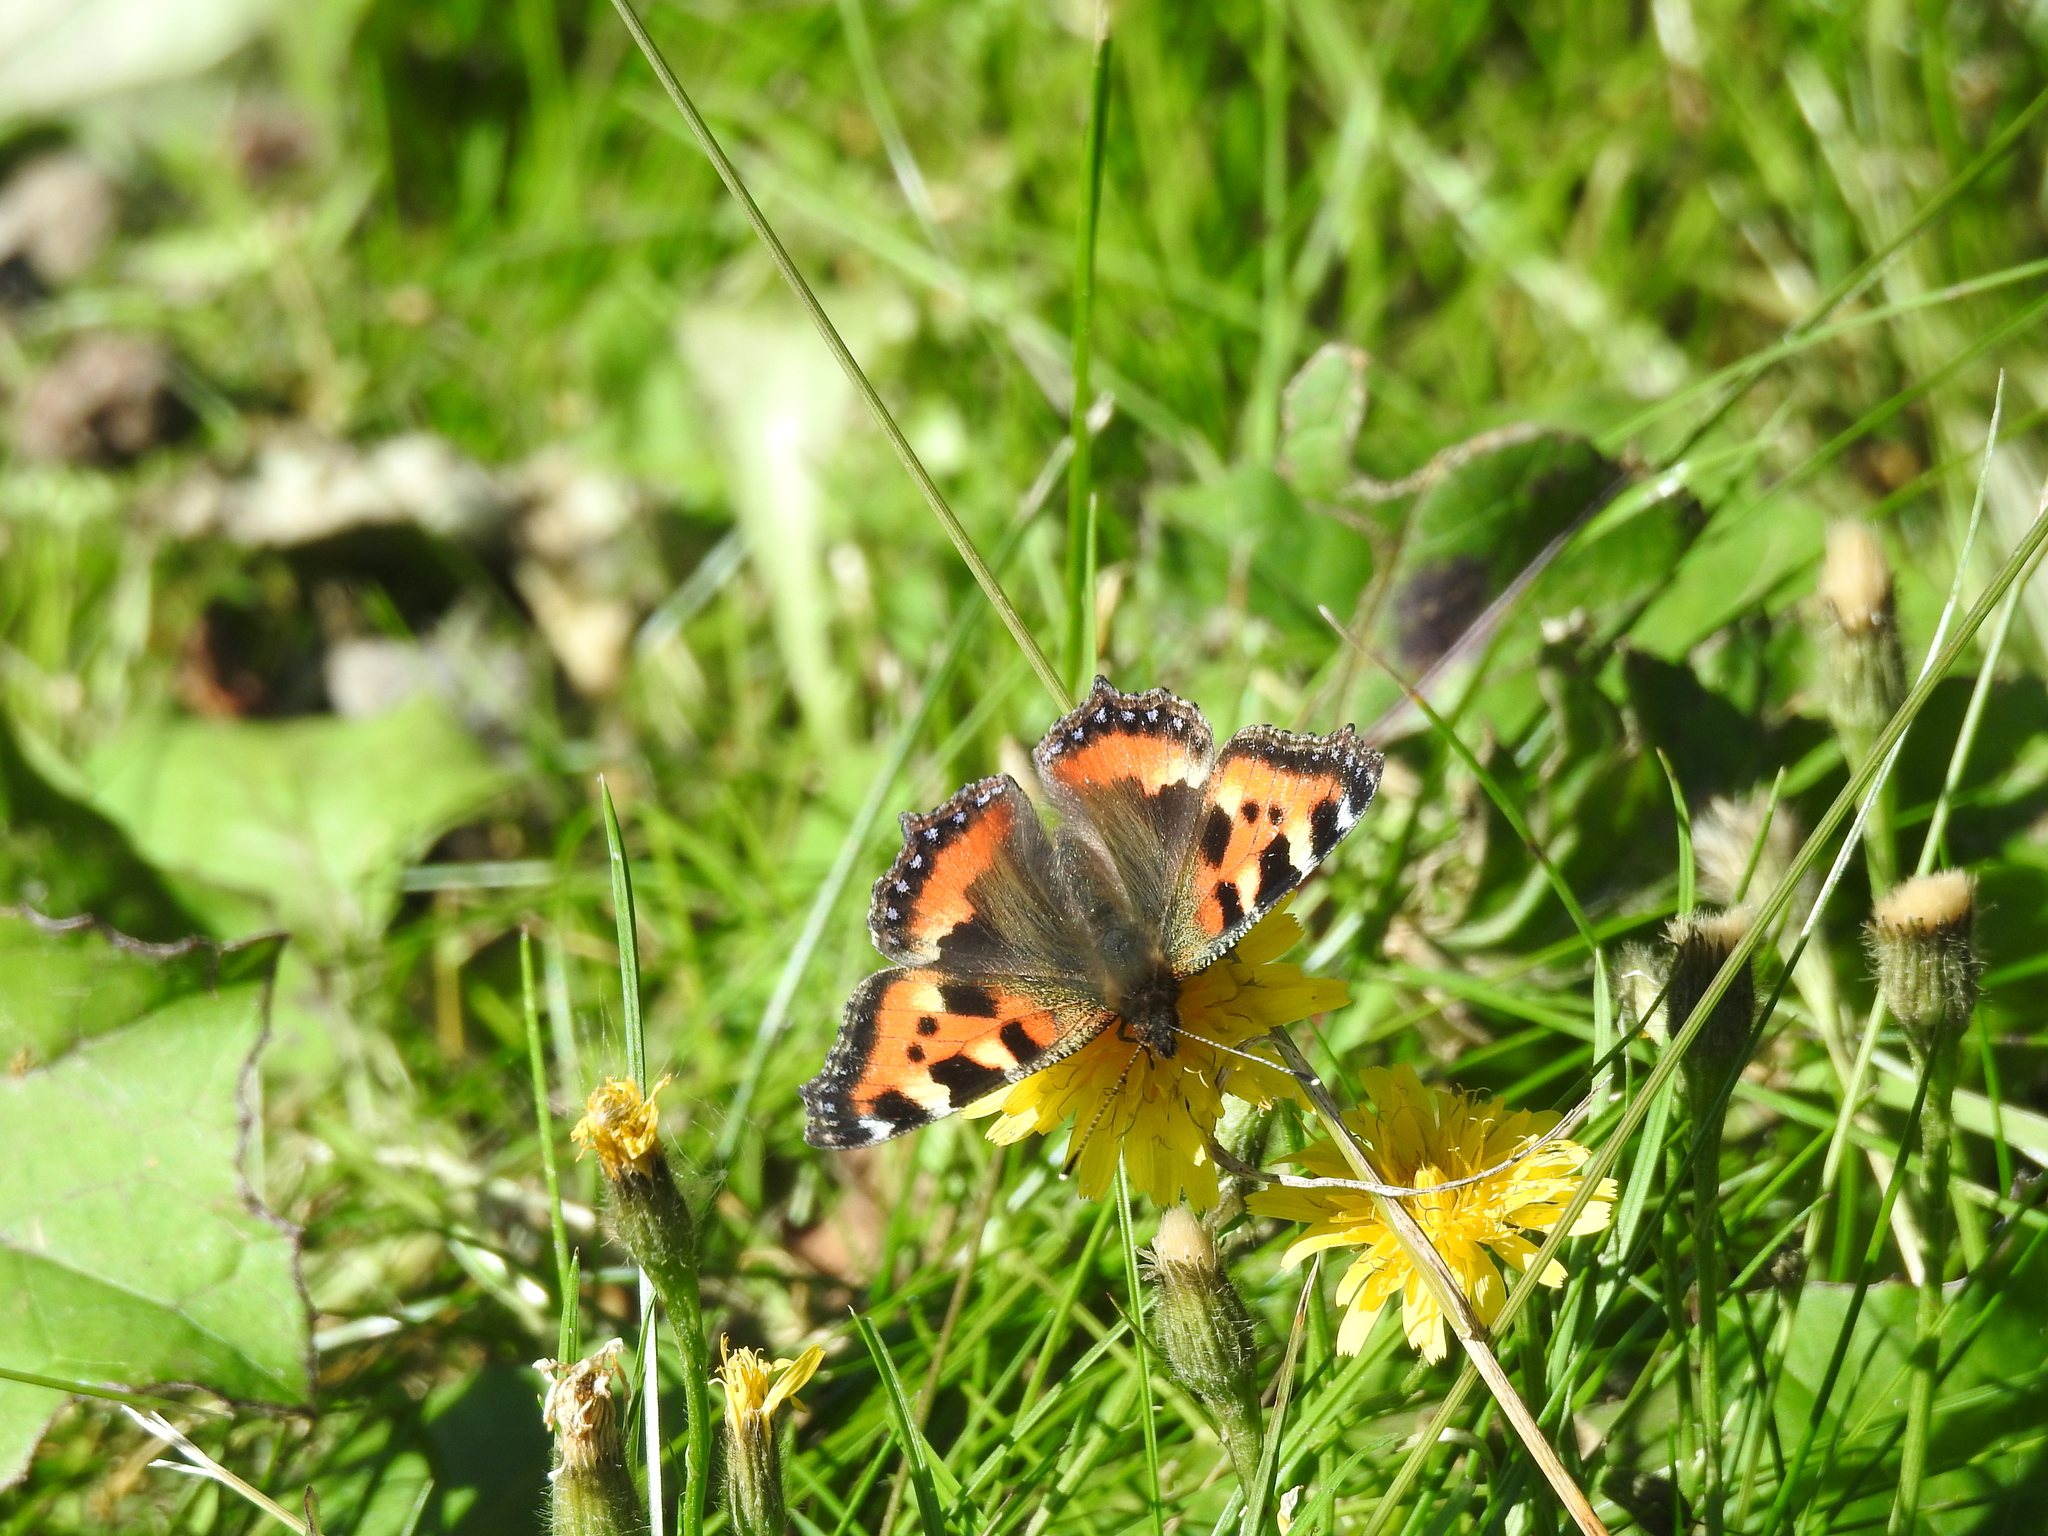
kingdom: Animalia
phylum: Arthropoda
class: Insecta
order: Lepidoptera
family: Nymphalidae
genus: Aglais
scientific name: Aglais urticae
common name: Small tortoiseshell
